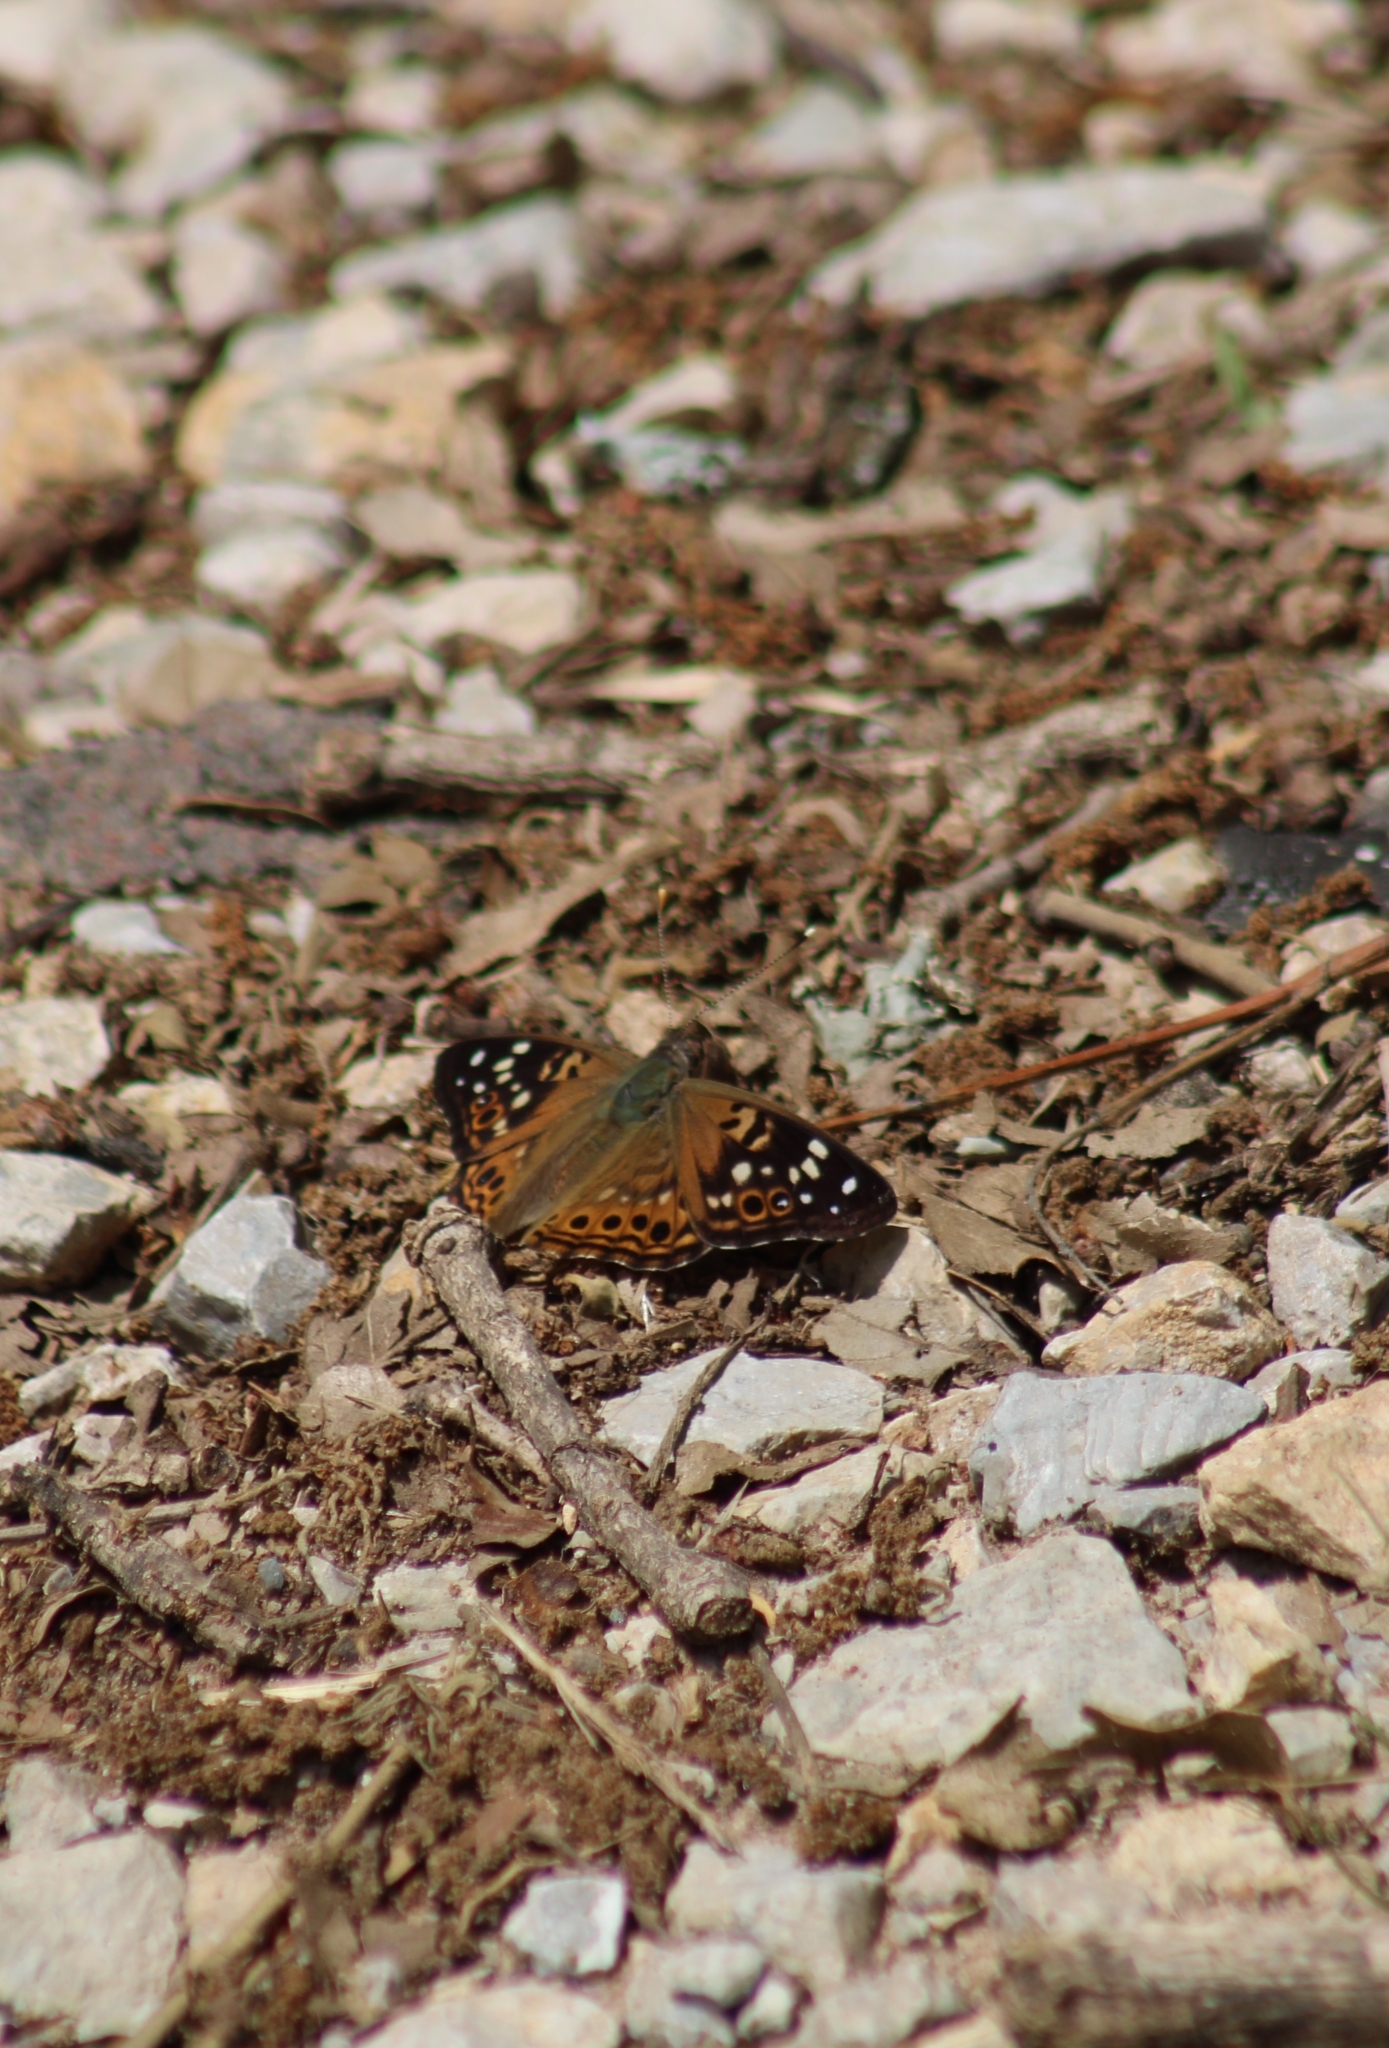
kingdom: Animalia
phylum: Arthropoda
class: Insecta
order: Lepidoptera
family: Nymphalidae
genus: Asterocampa
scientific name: Asterocampa celtis
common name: Hackberry emperor
